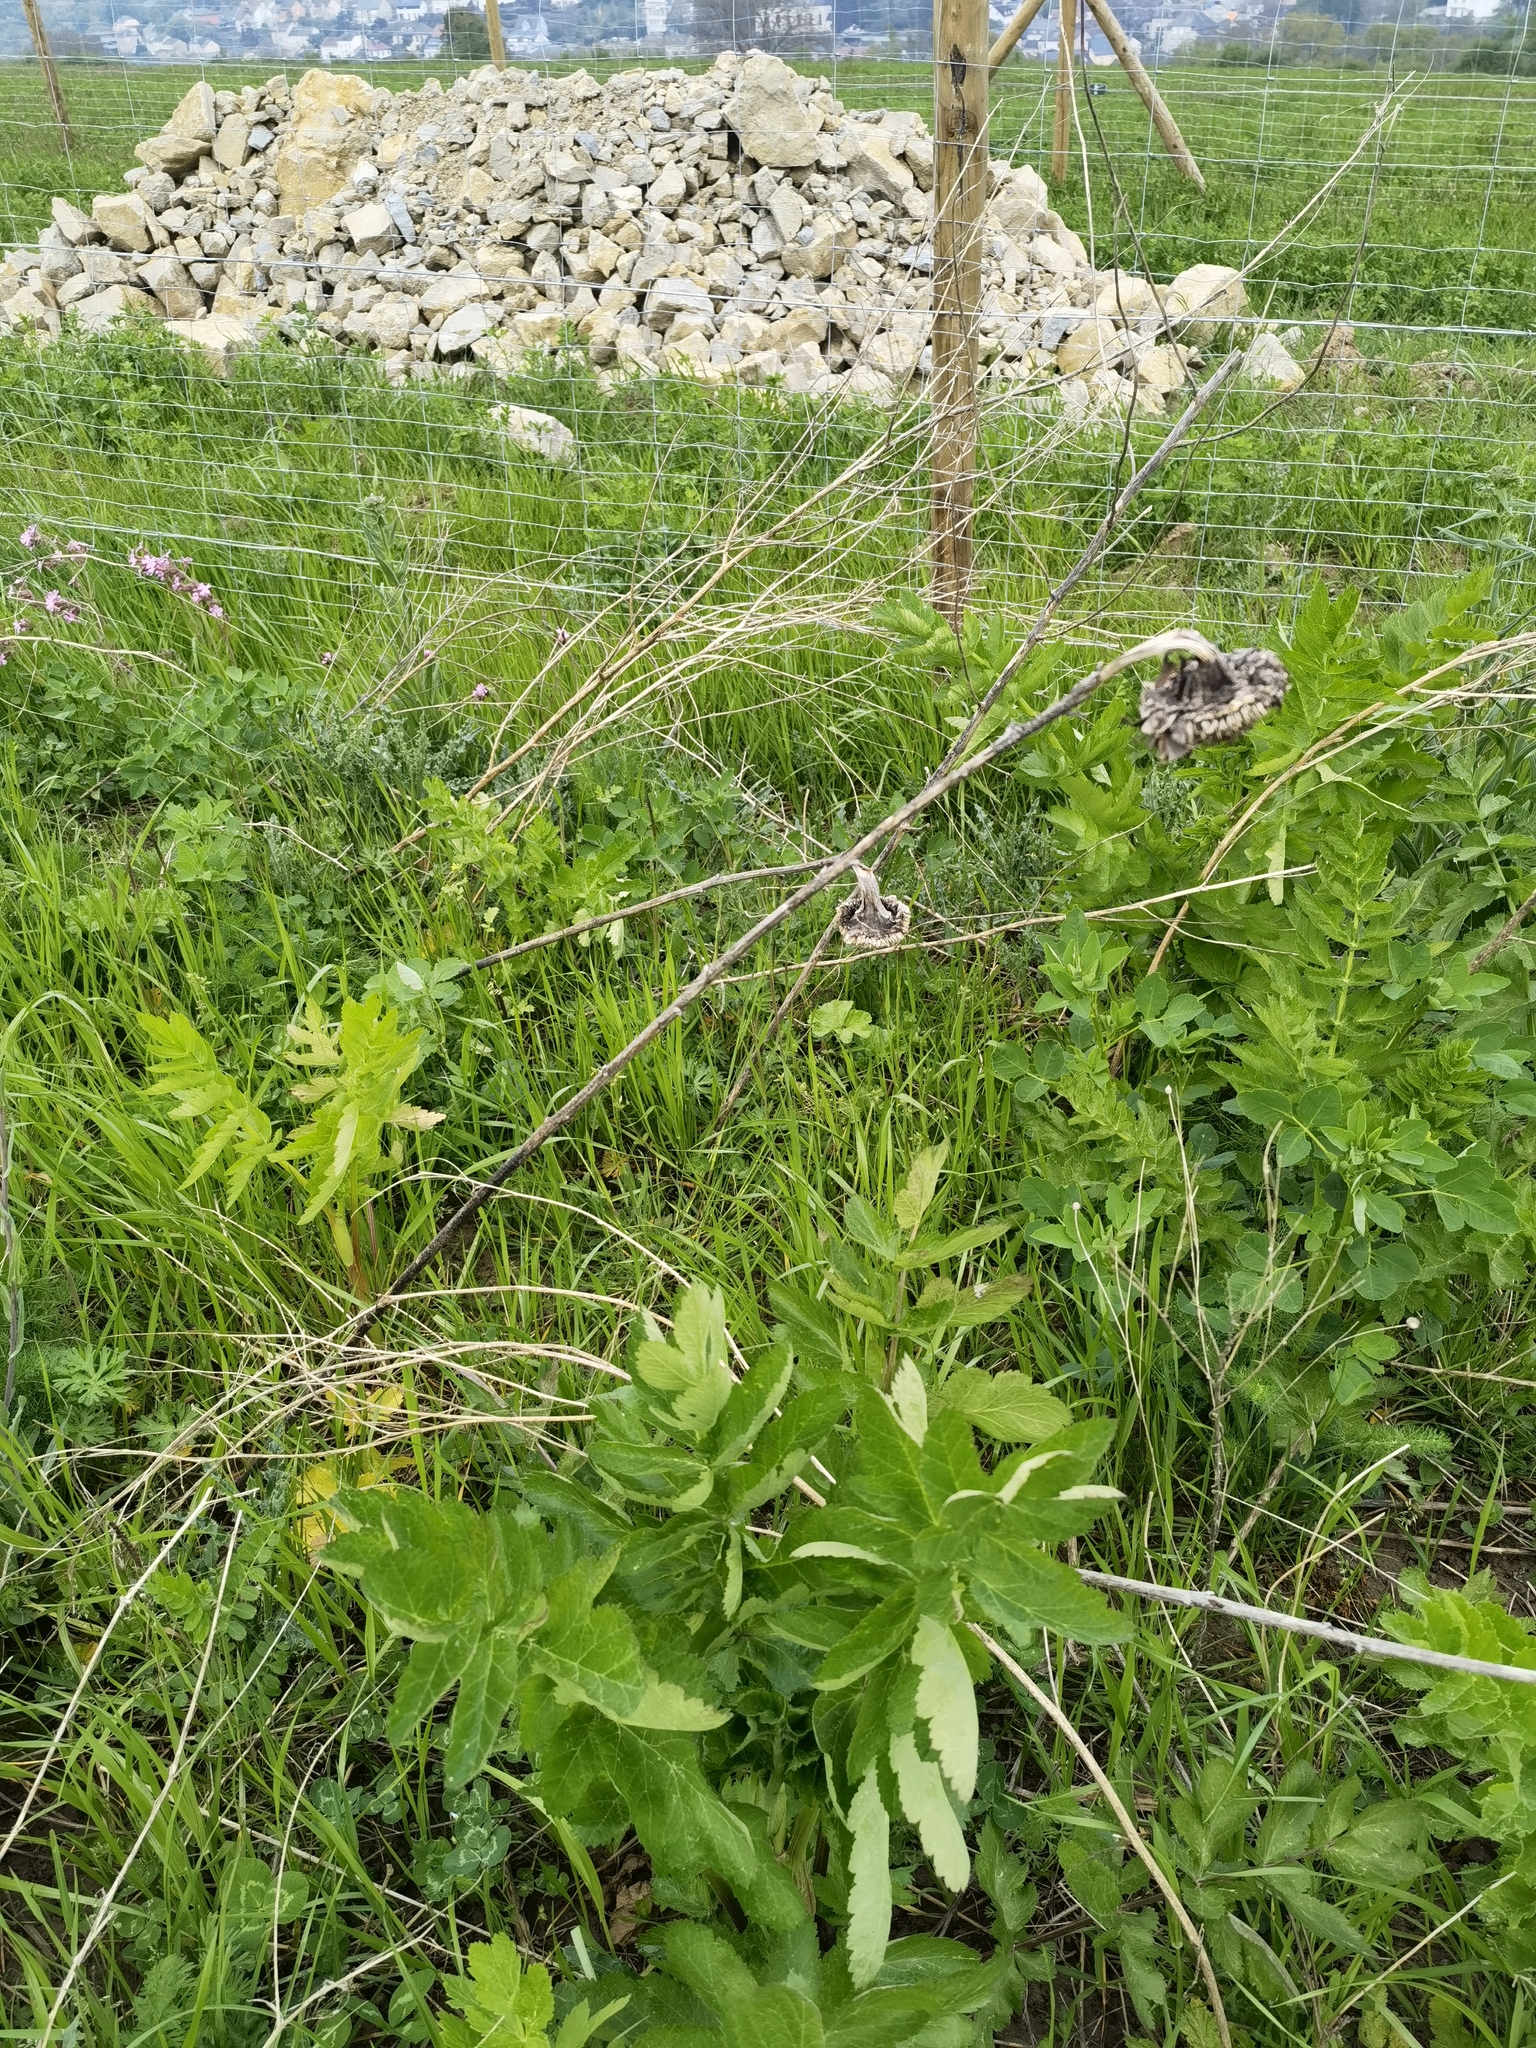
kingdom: Plantae
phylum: Tracheophyta
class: Magnoliopsida
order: Apiales
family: Apiaceae
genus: Pastinaca
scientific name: Pastinaca sativa
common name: Wild parsnip
